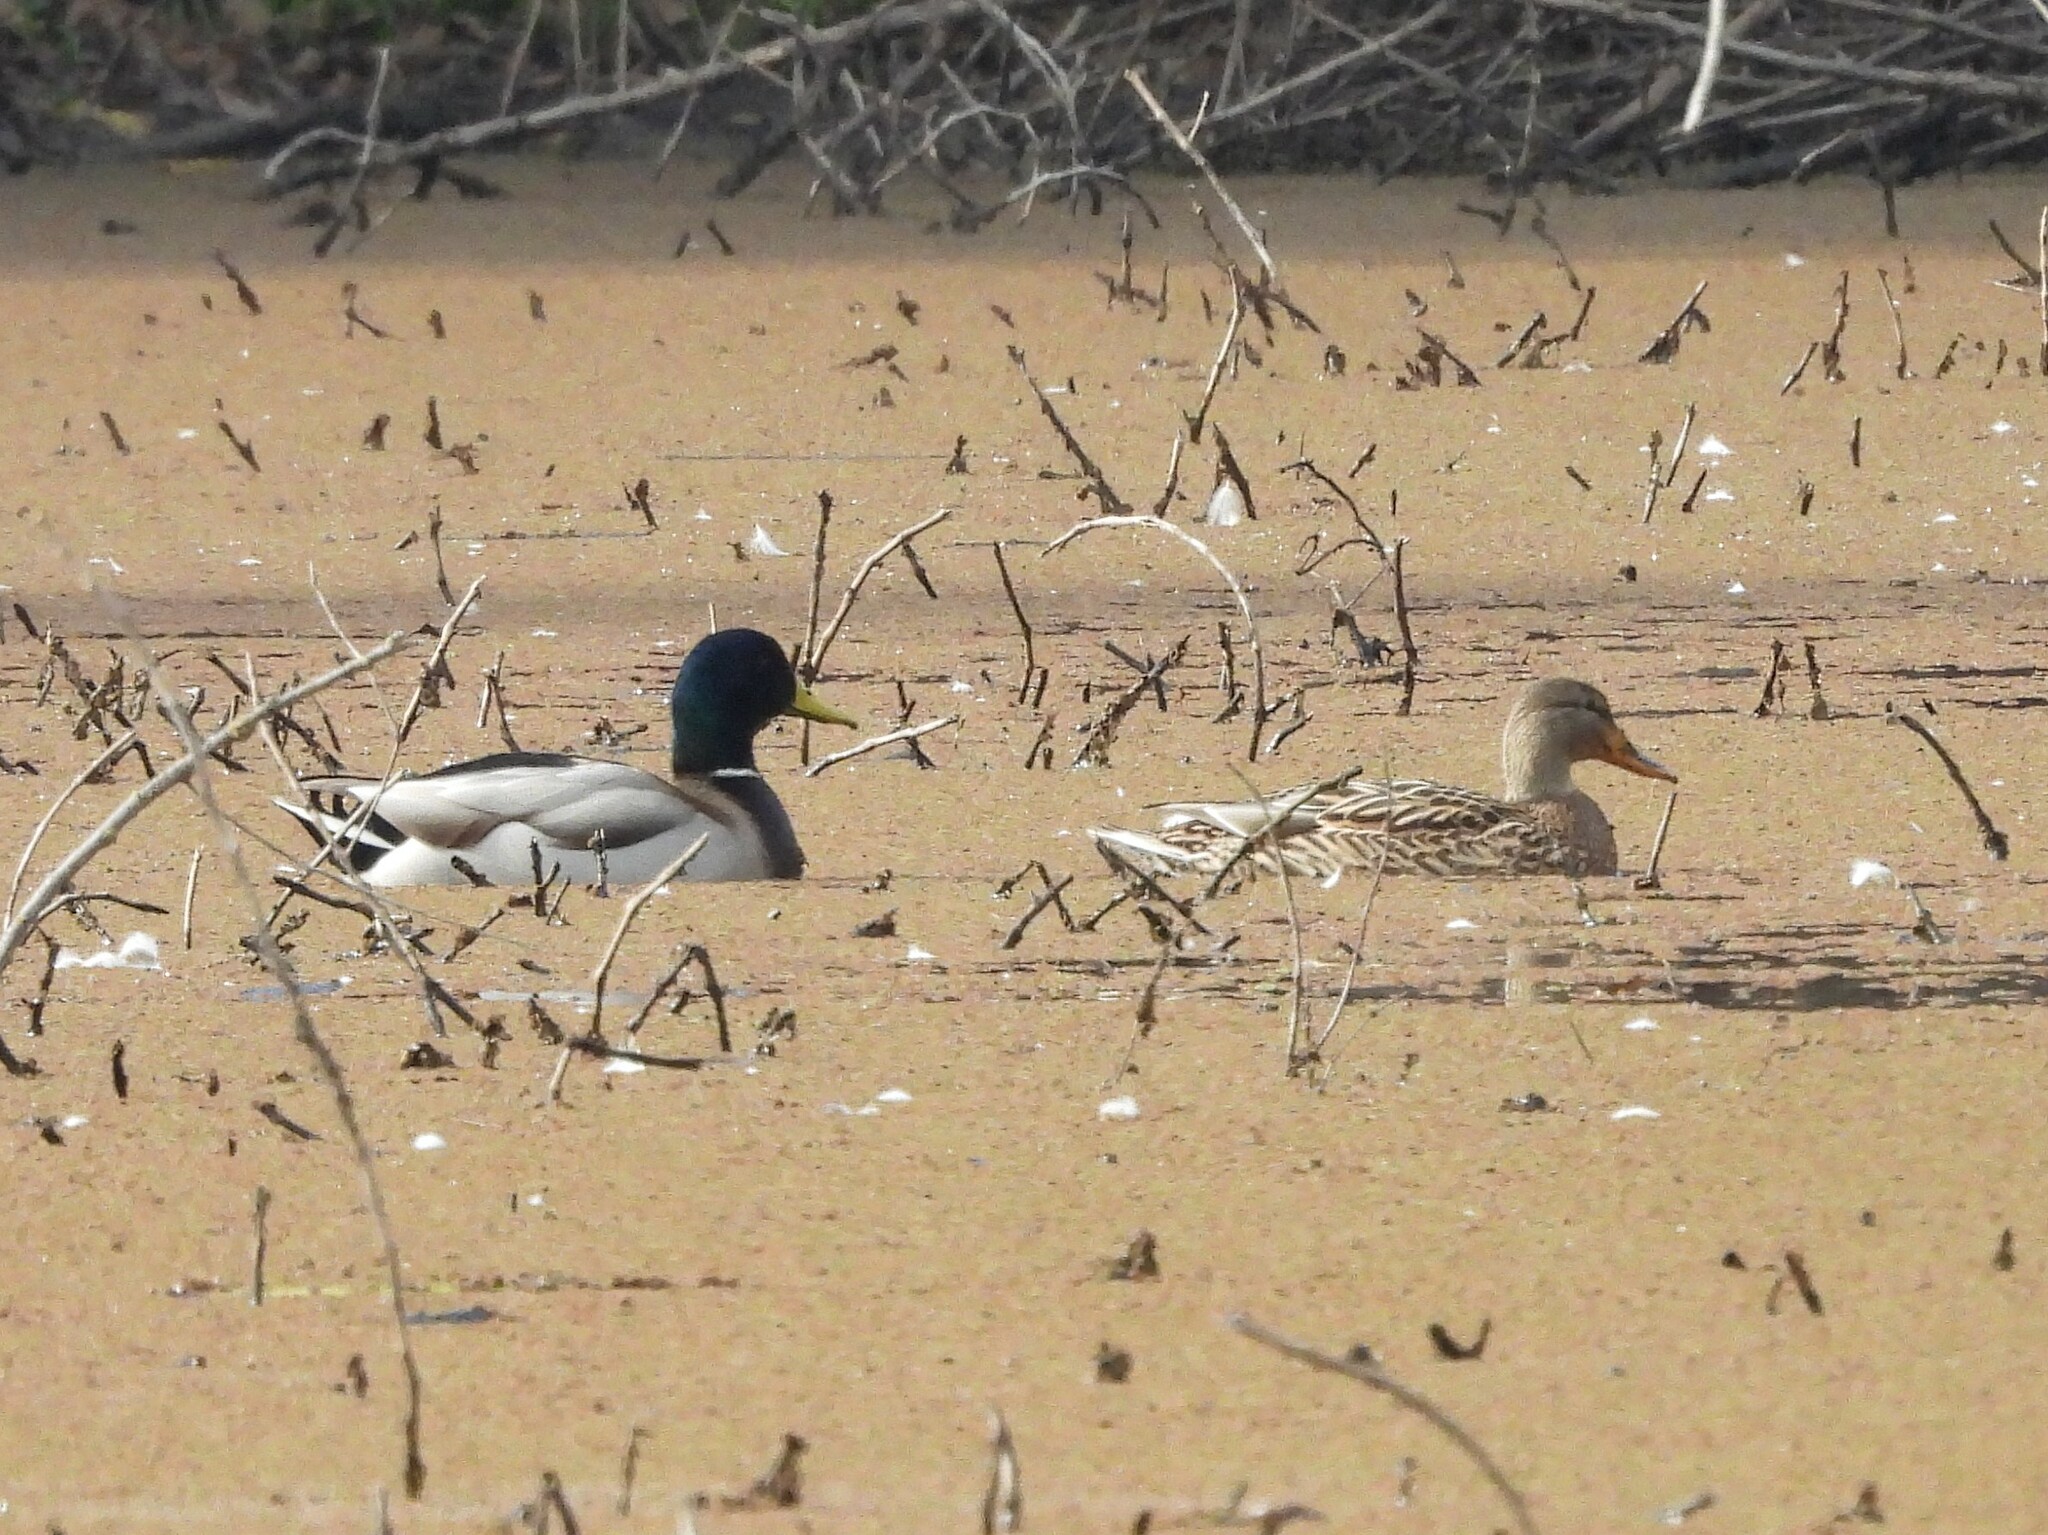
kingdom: Animalia
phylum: Chordata
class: Aves
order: Anseriformes
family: Anatidae
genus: Anas
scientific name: Anas platyrhynchos
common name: Mallard
